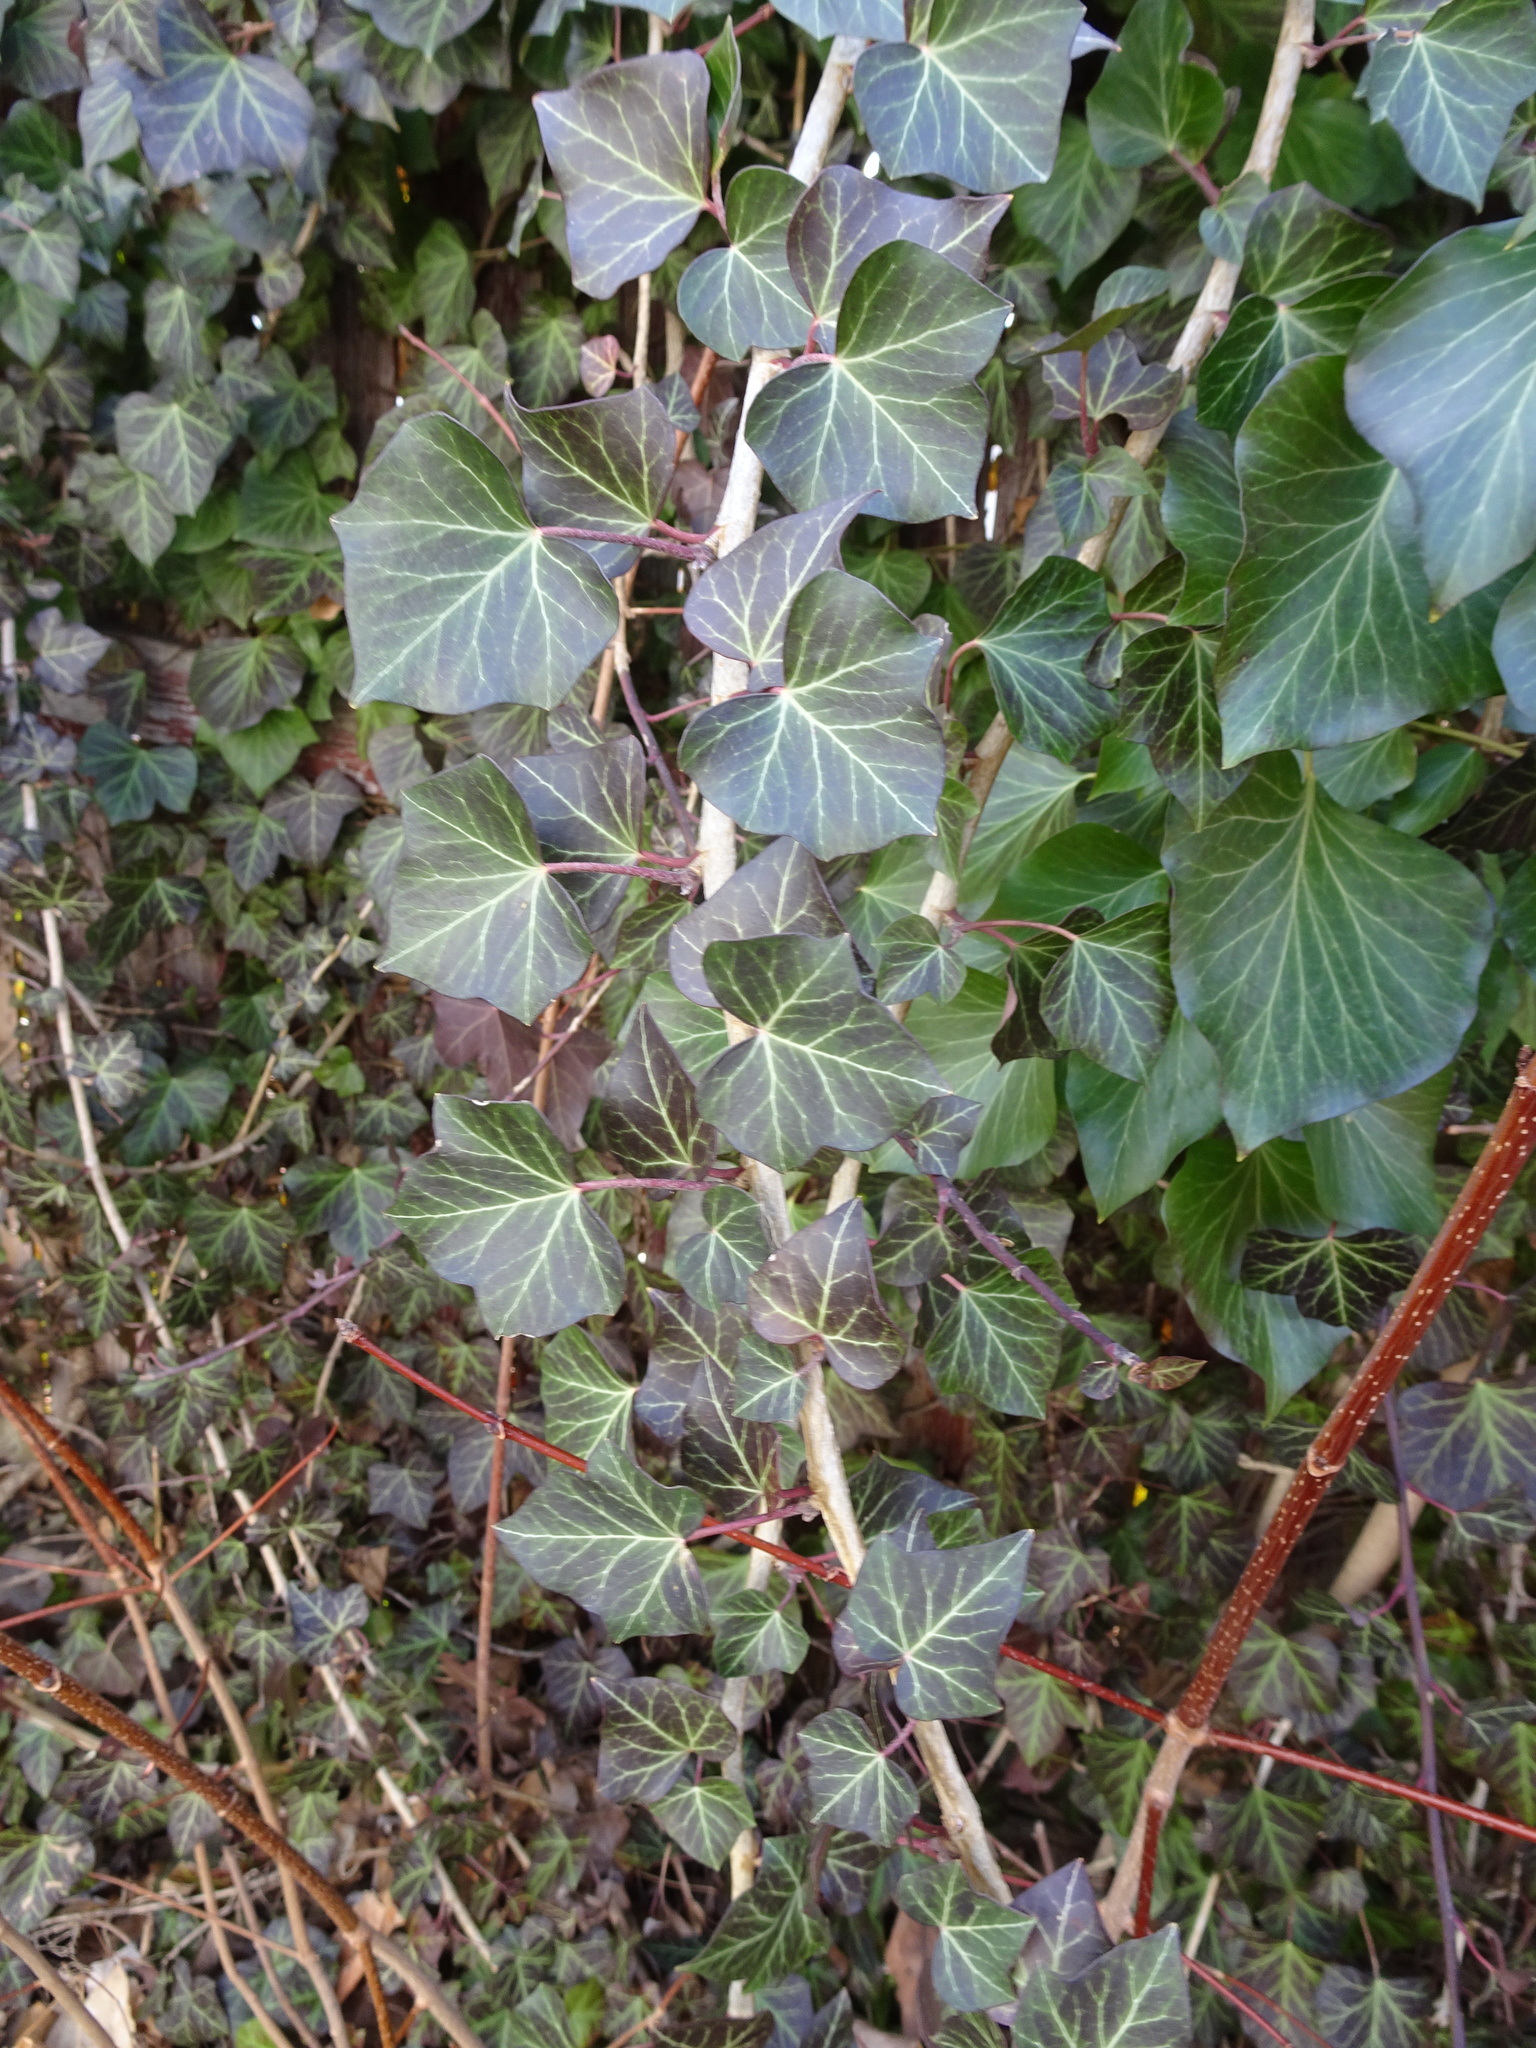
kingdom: Plantae
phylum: Tracheophyta
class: Magnoliopsida
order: Apiales
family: Araliaceae
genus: Hedera
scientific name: Hedera helix
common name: Ivy
